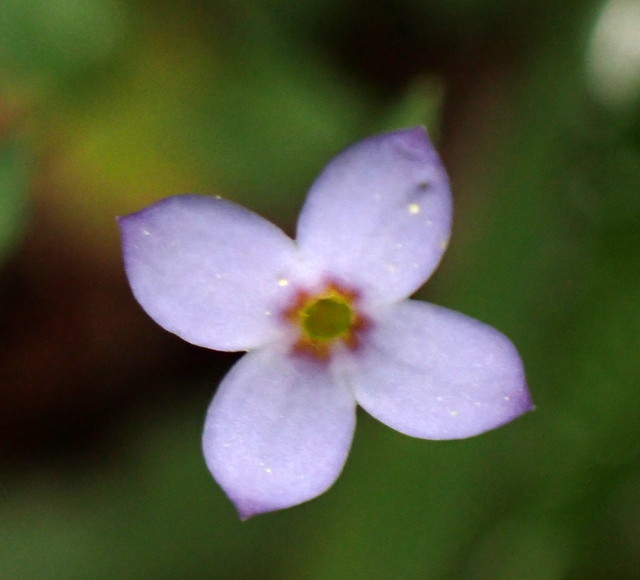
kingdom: Plantae
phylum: Tracheophyta
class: Magnoliopsida
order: Gentianales
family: Rubiaceae
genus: Houstonia
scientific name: Houstonia pusilla
